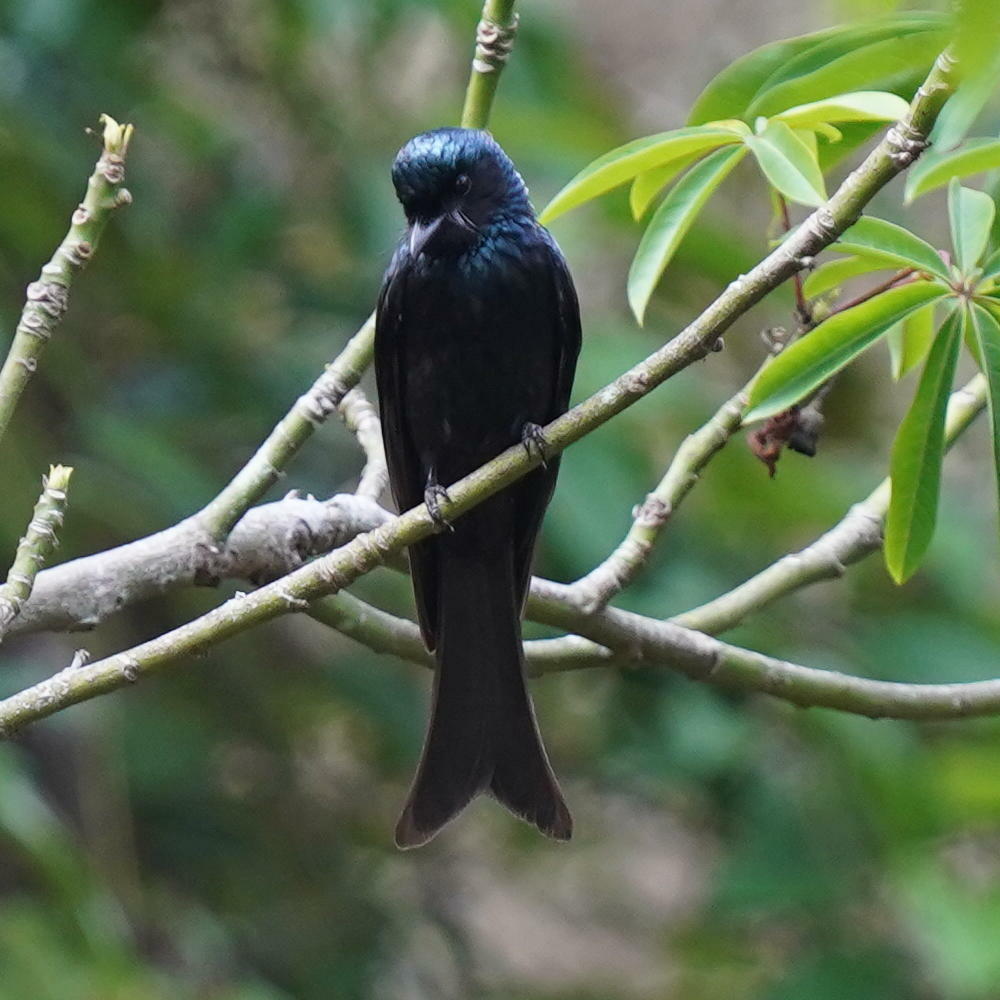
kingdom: Animalia
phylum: Chordata
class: Aves
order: Passeriformes
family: Dicruridae
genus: Dicrurus
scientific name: Dicrurus aeneus
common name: Bronzed drongo
